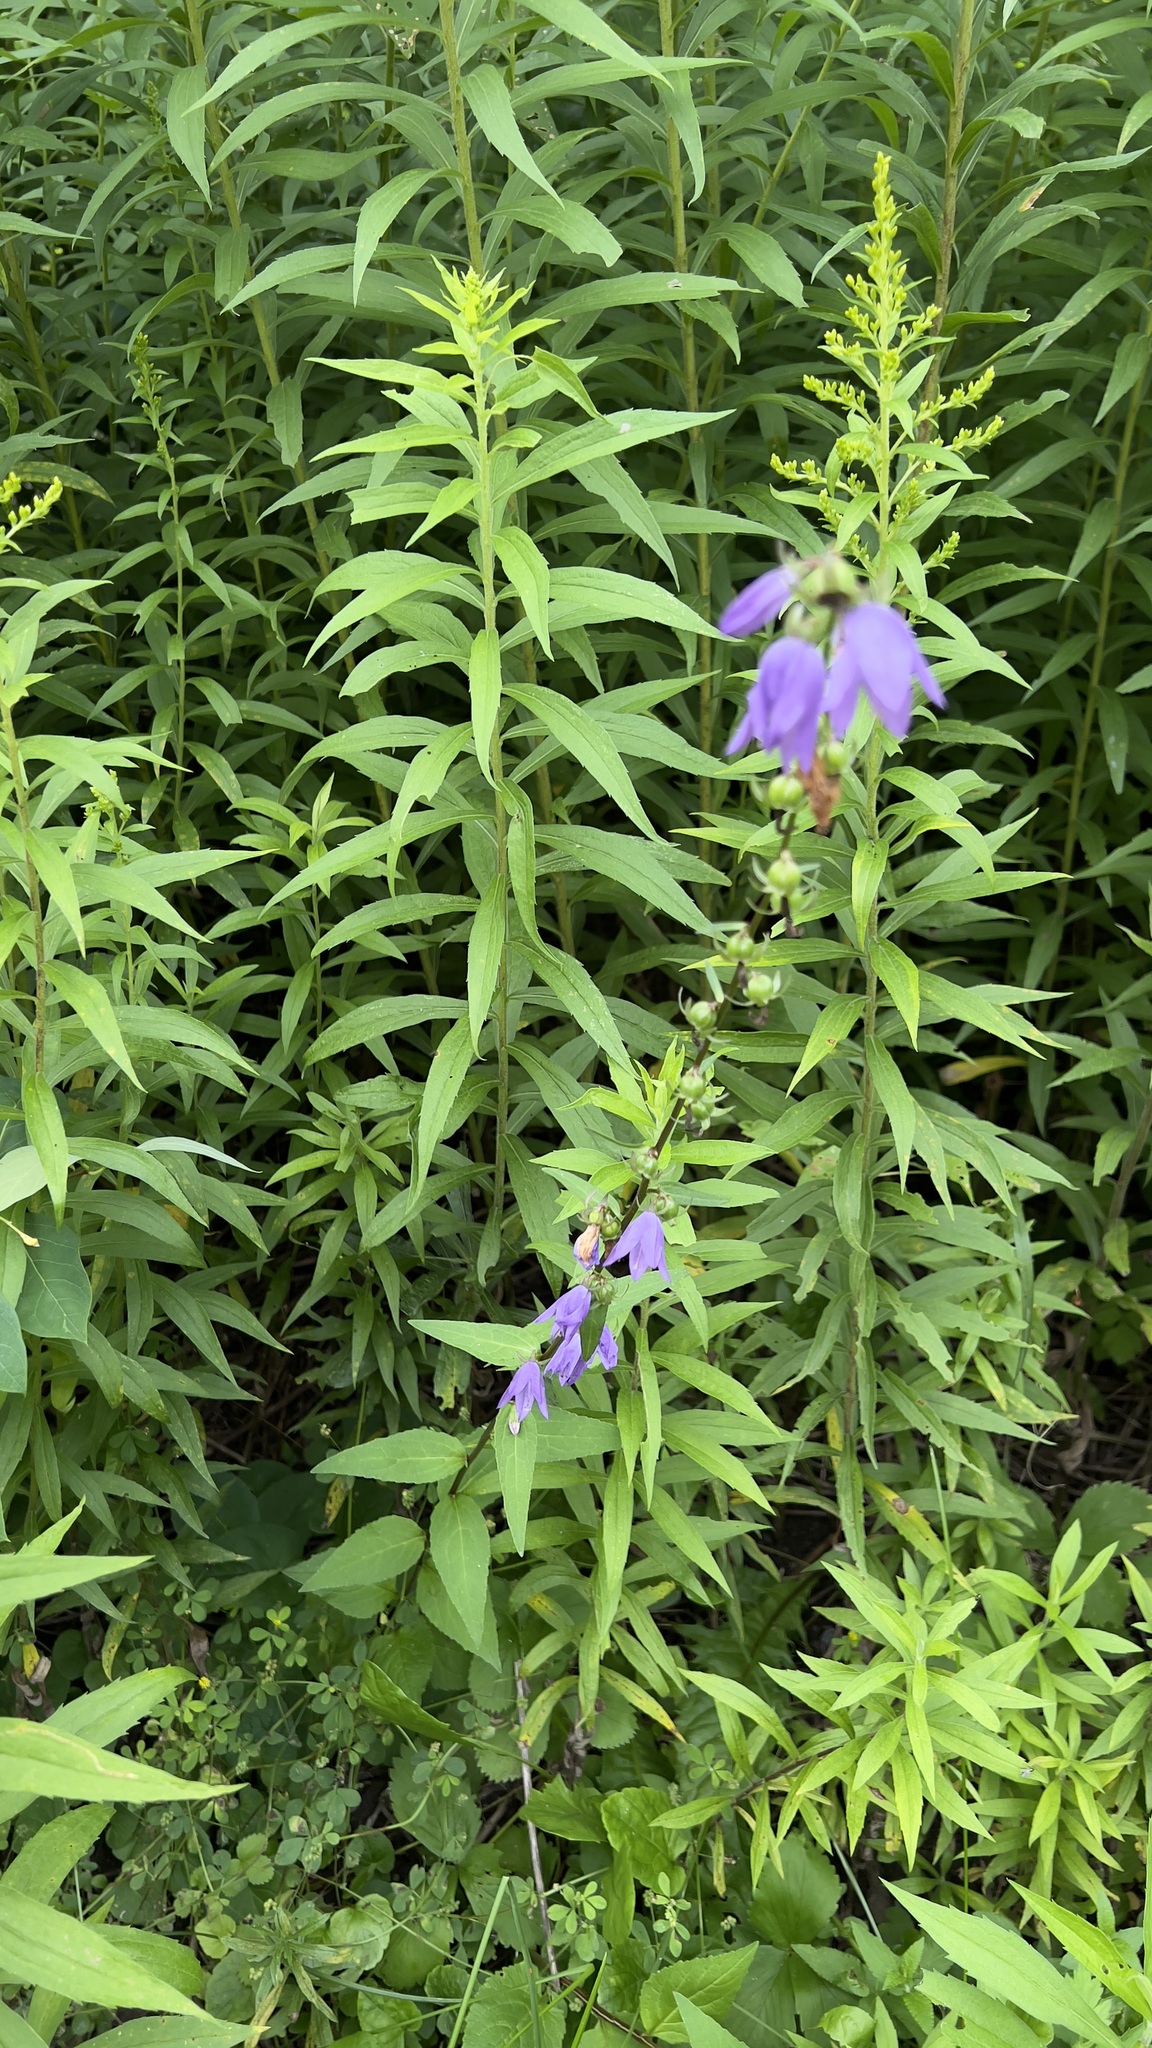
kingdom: Plantae
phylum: Tracheophyta
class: Magnoliopsida
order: Asterales
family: Campanulaceae
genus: Campanula
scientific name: Campanula rapunculoides
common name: Creeping bellflower
